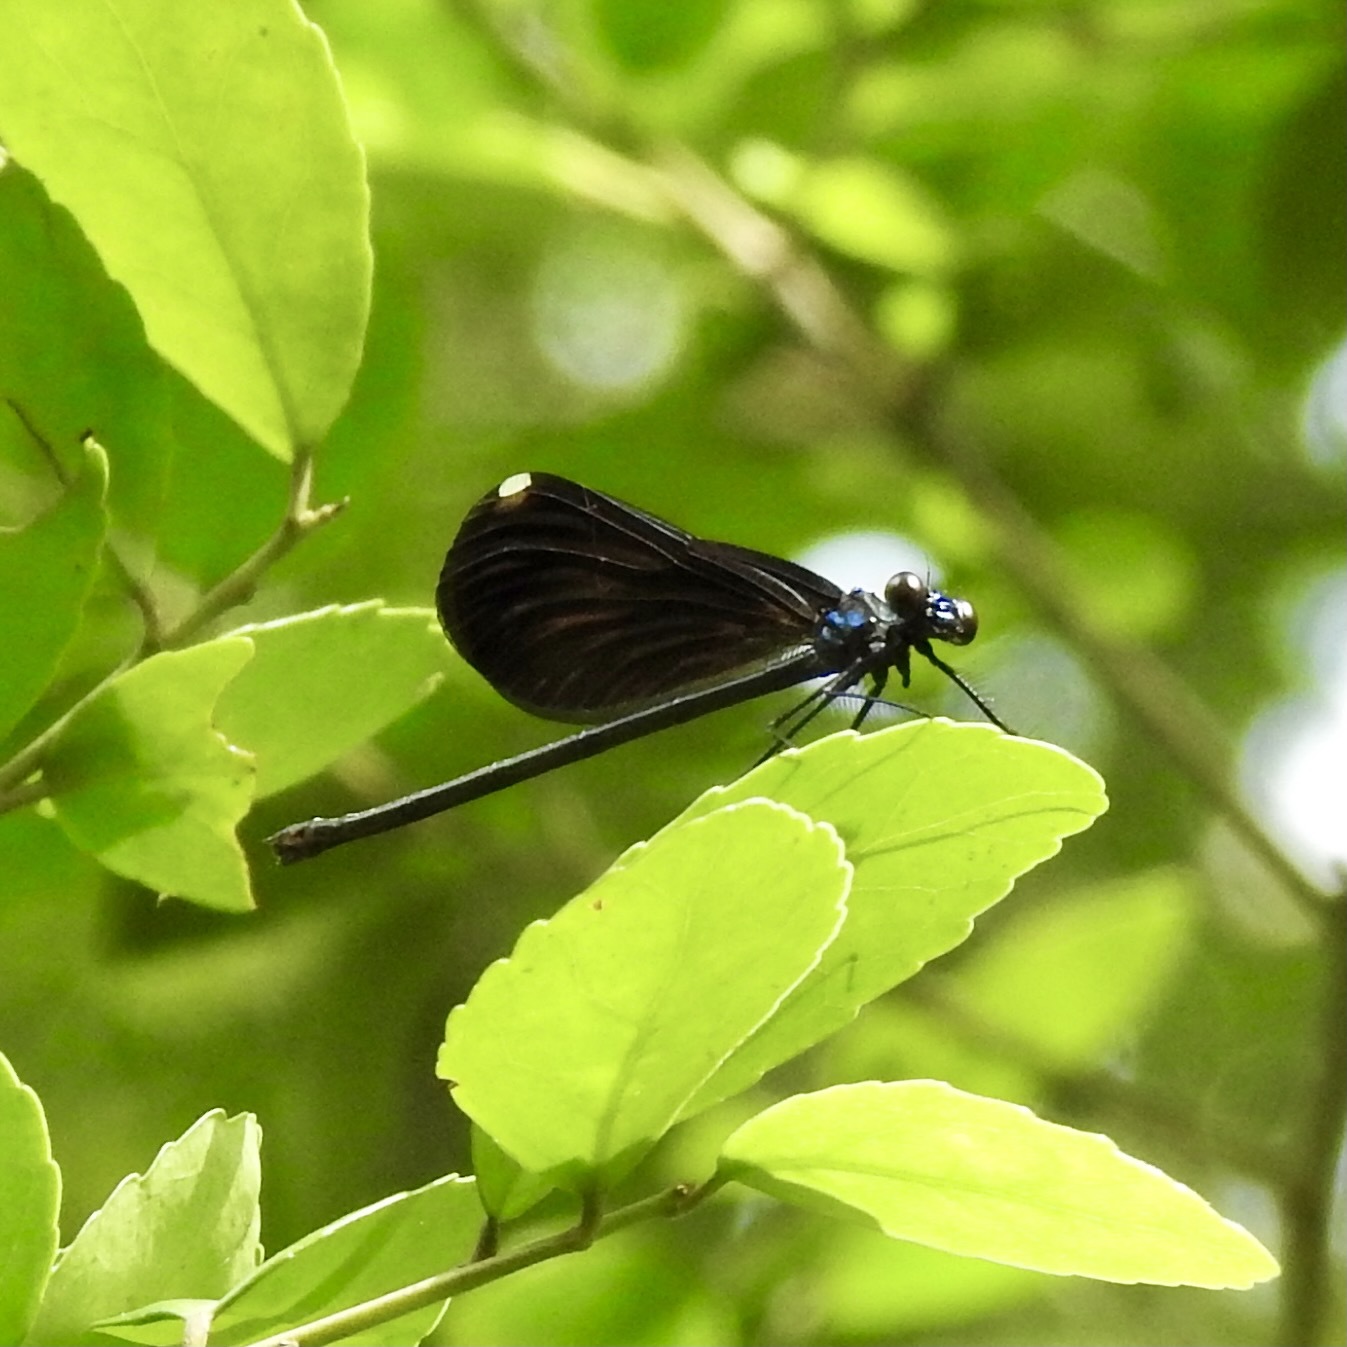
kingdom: Animalia
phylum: Arthropoda
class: Insecta
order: Odonata
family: Calopterygidae
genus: Calopteryx
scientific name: Calopteryx maculata
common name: Ebony jewelwing
